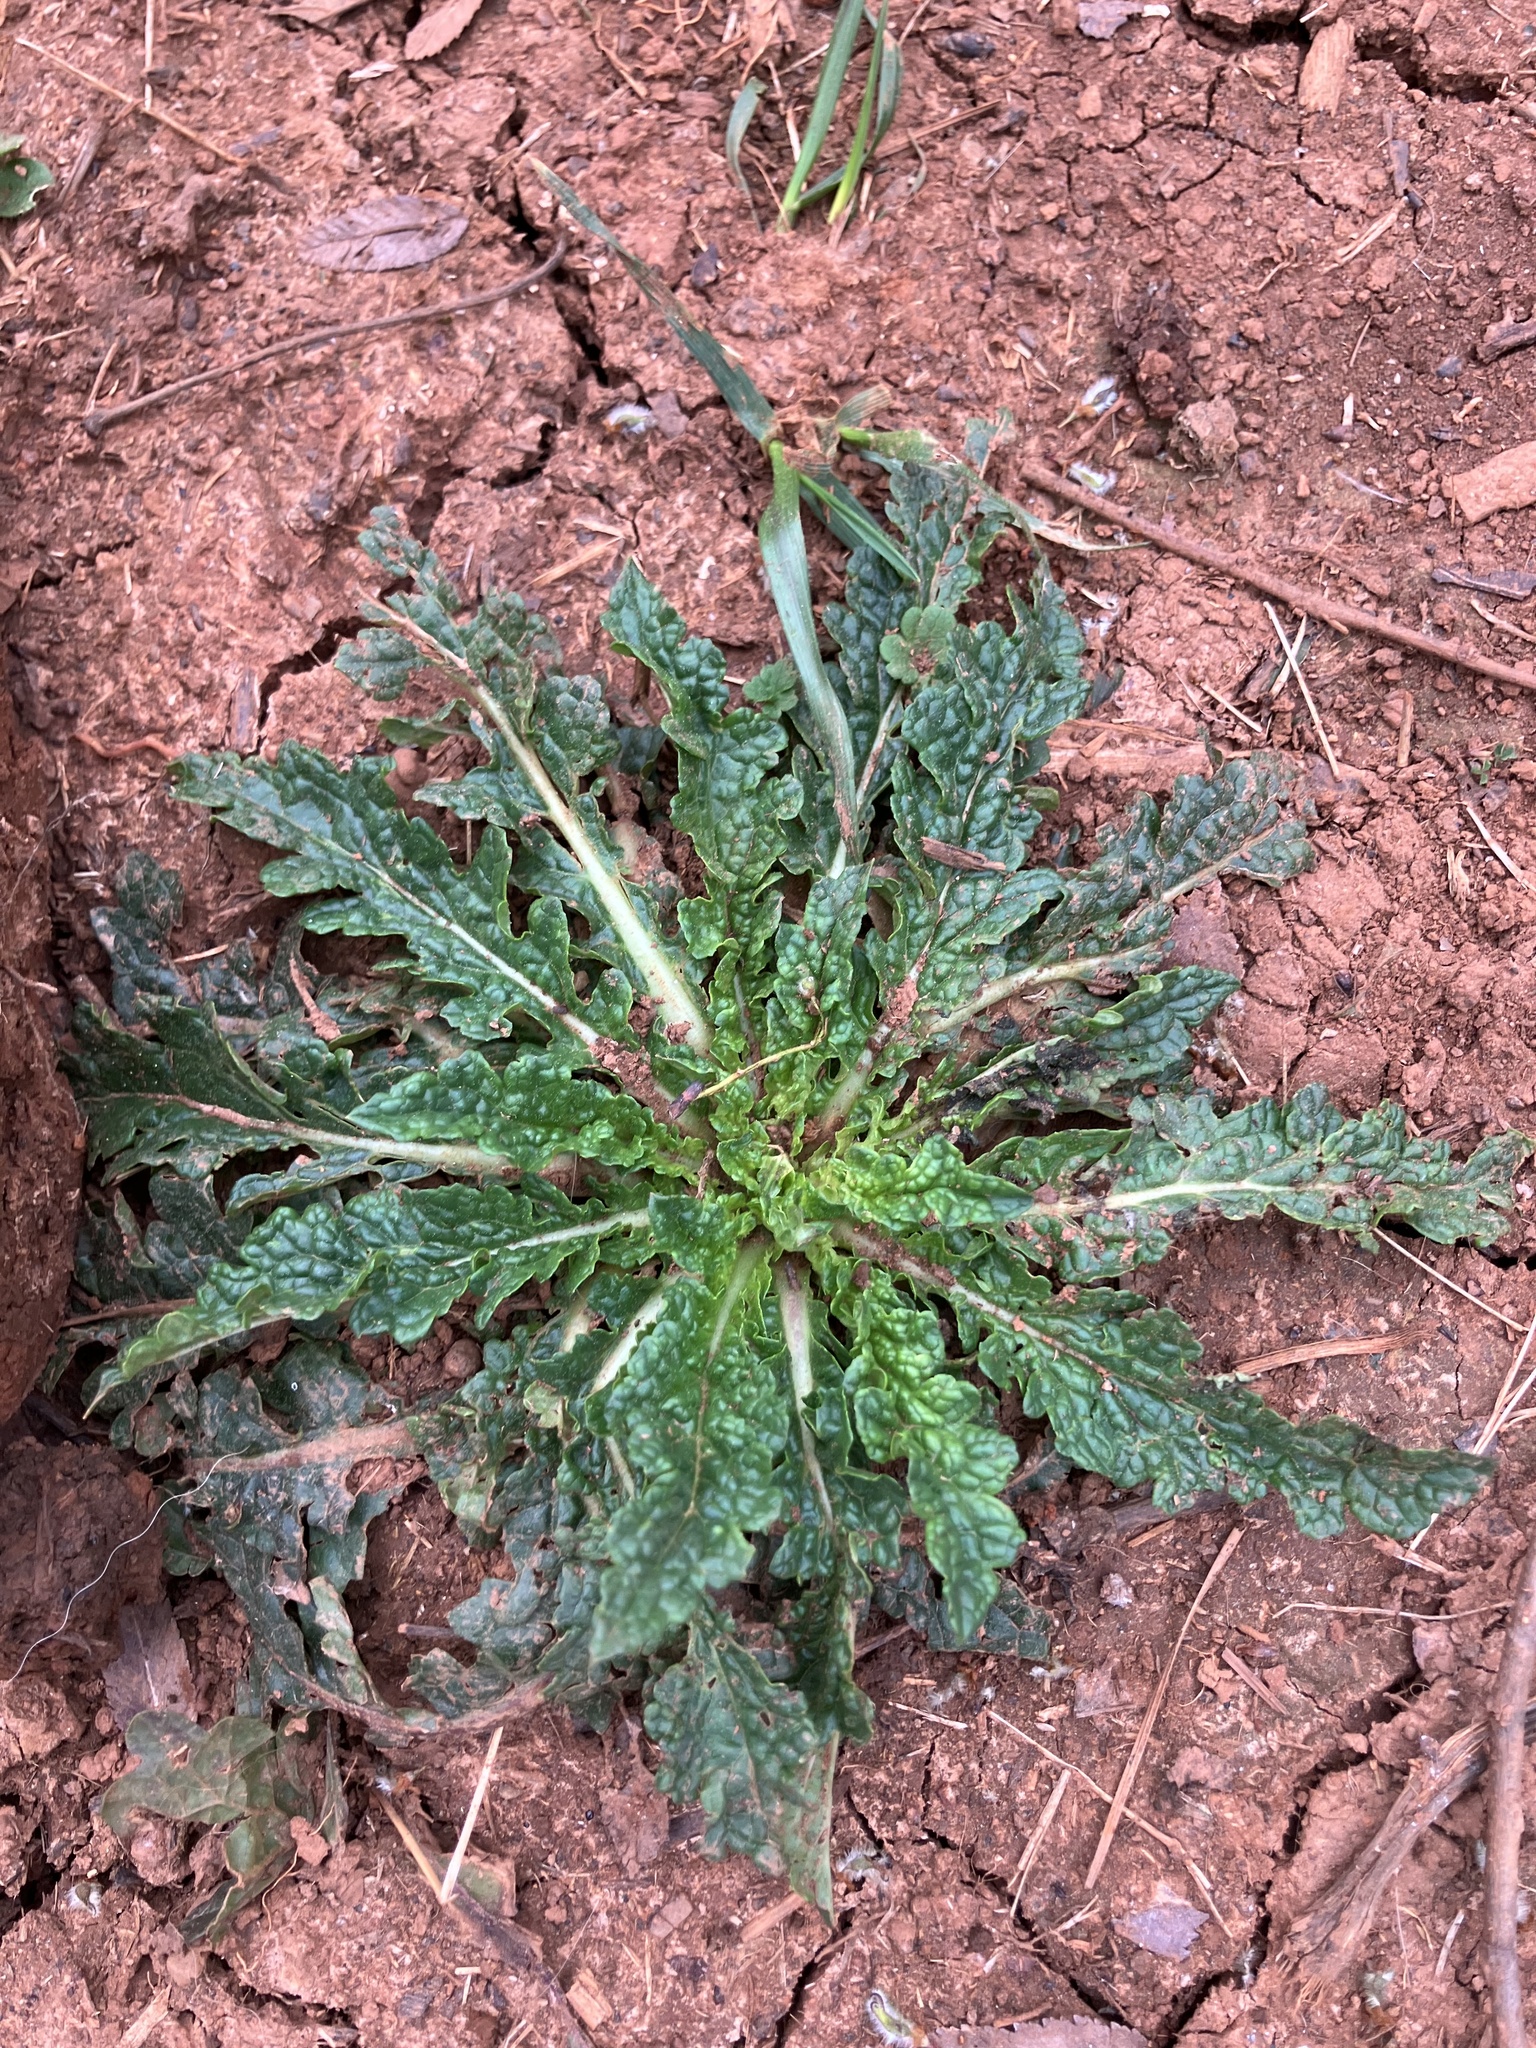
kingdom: Plantae
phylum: Tracheophyta
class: Magnoliopsida
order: Lamiales
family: Scrophulariaceae
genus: Verbascum
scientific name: Verbascum blattaria
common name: Moth mullein
